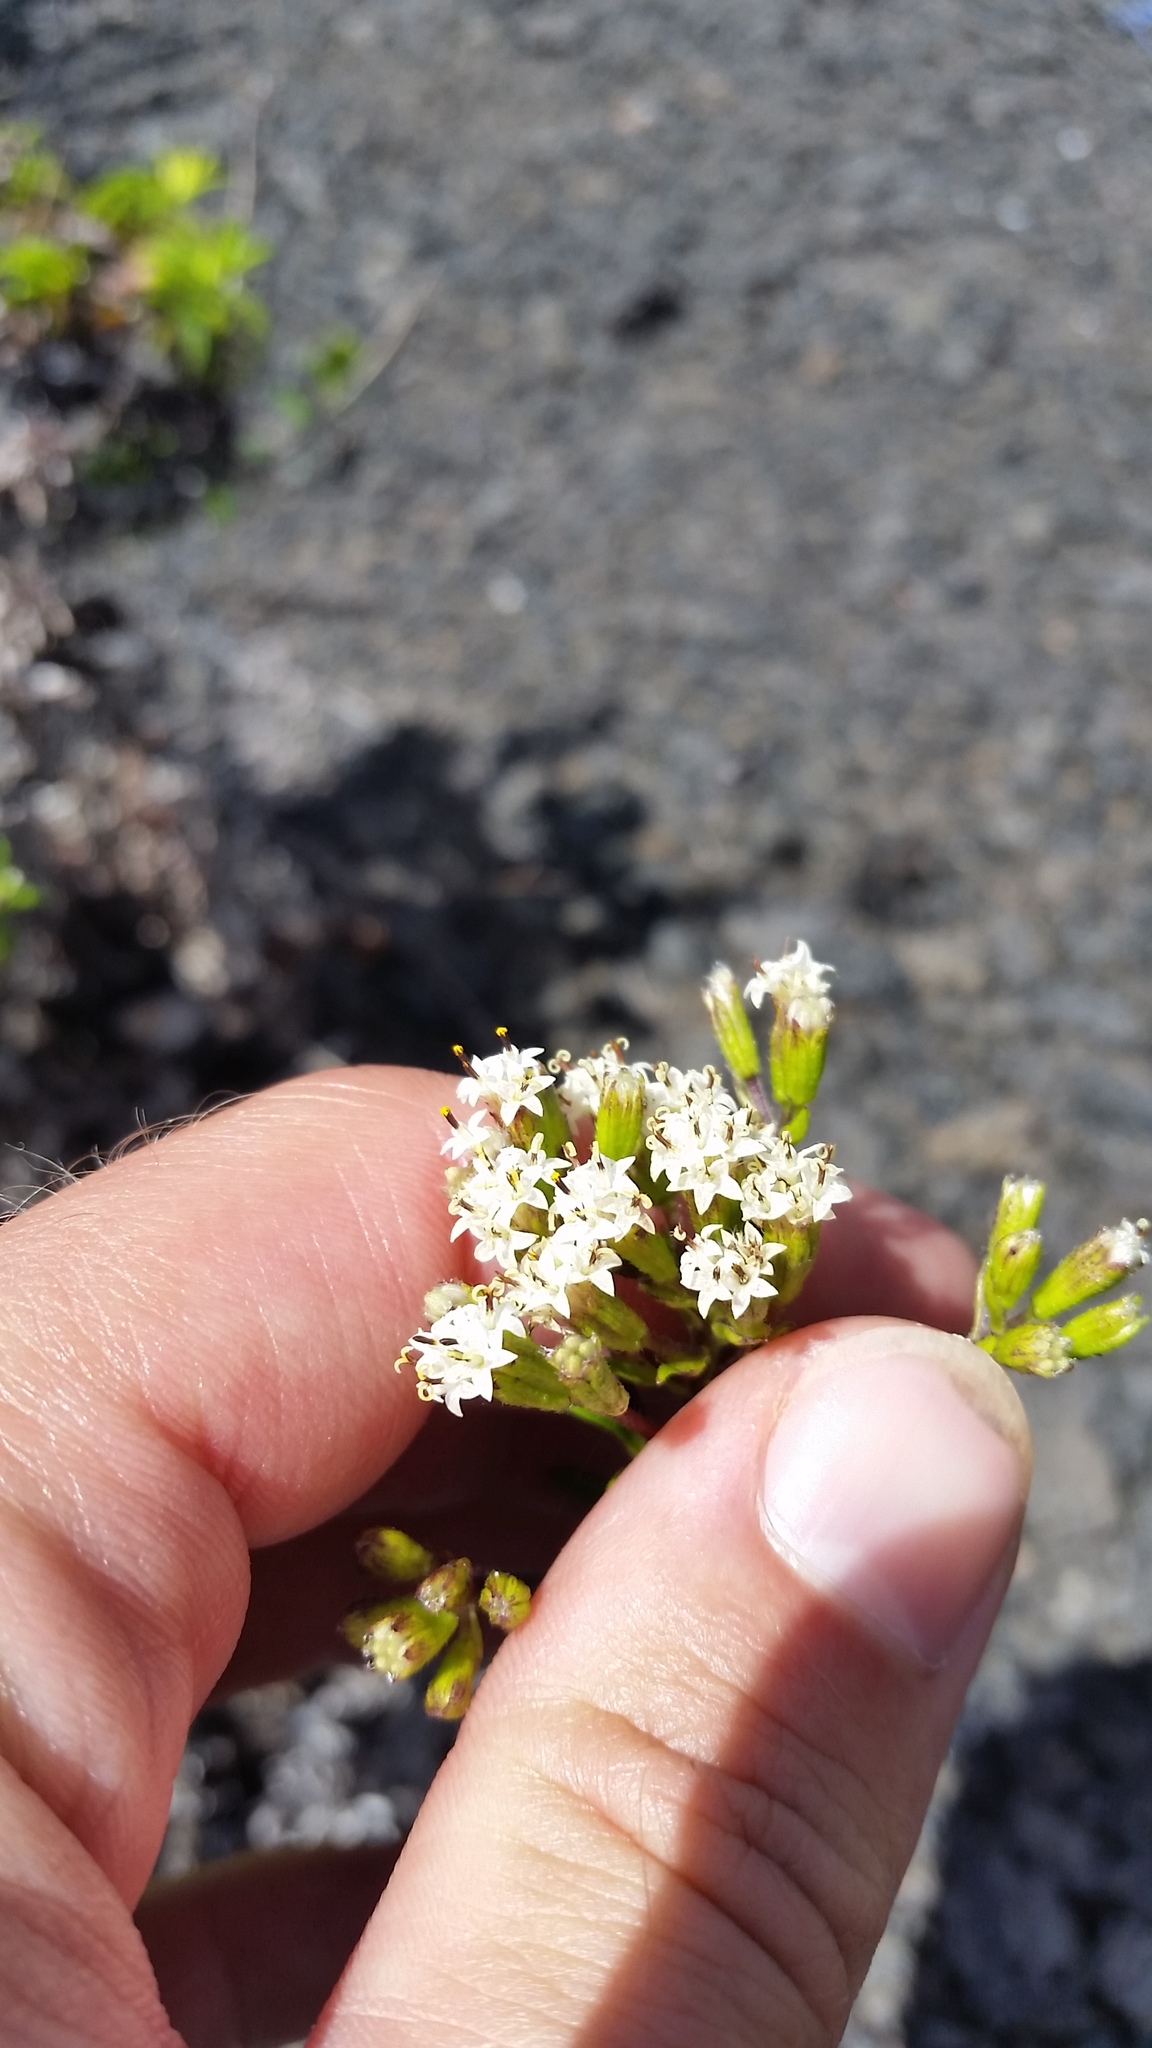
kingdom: Plantae
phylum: Tracheophyta
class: Magnoliopsida
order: Asterales
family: Asteraceae
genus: Dubautia
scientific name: Dubautia scabra
